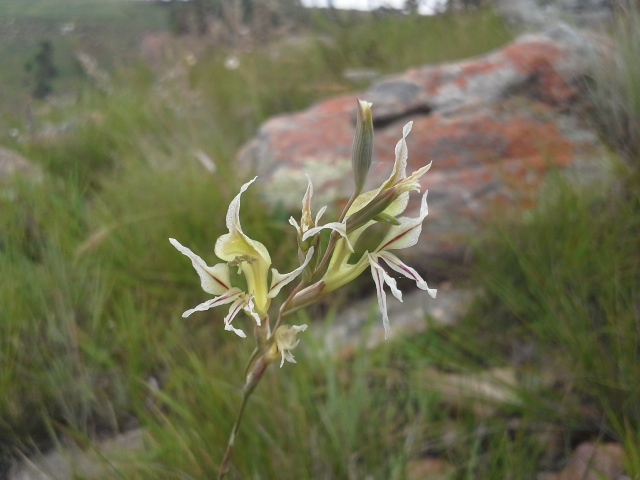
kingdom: Plantae
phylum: Tracheophyta
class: Liliopsida
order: Asparagales
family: Iridaceae
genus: Gladiolus
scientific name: Gladiolus permeabilis
